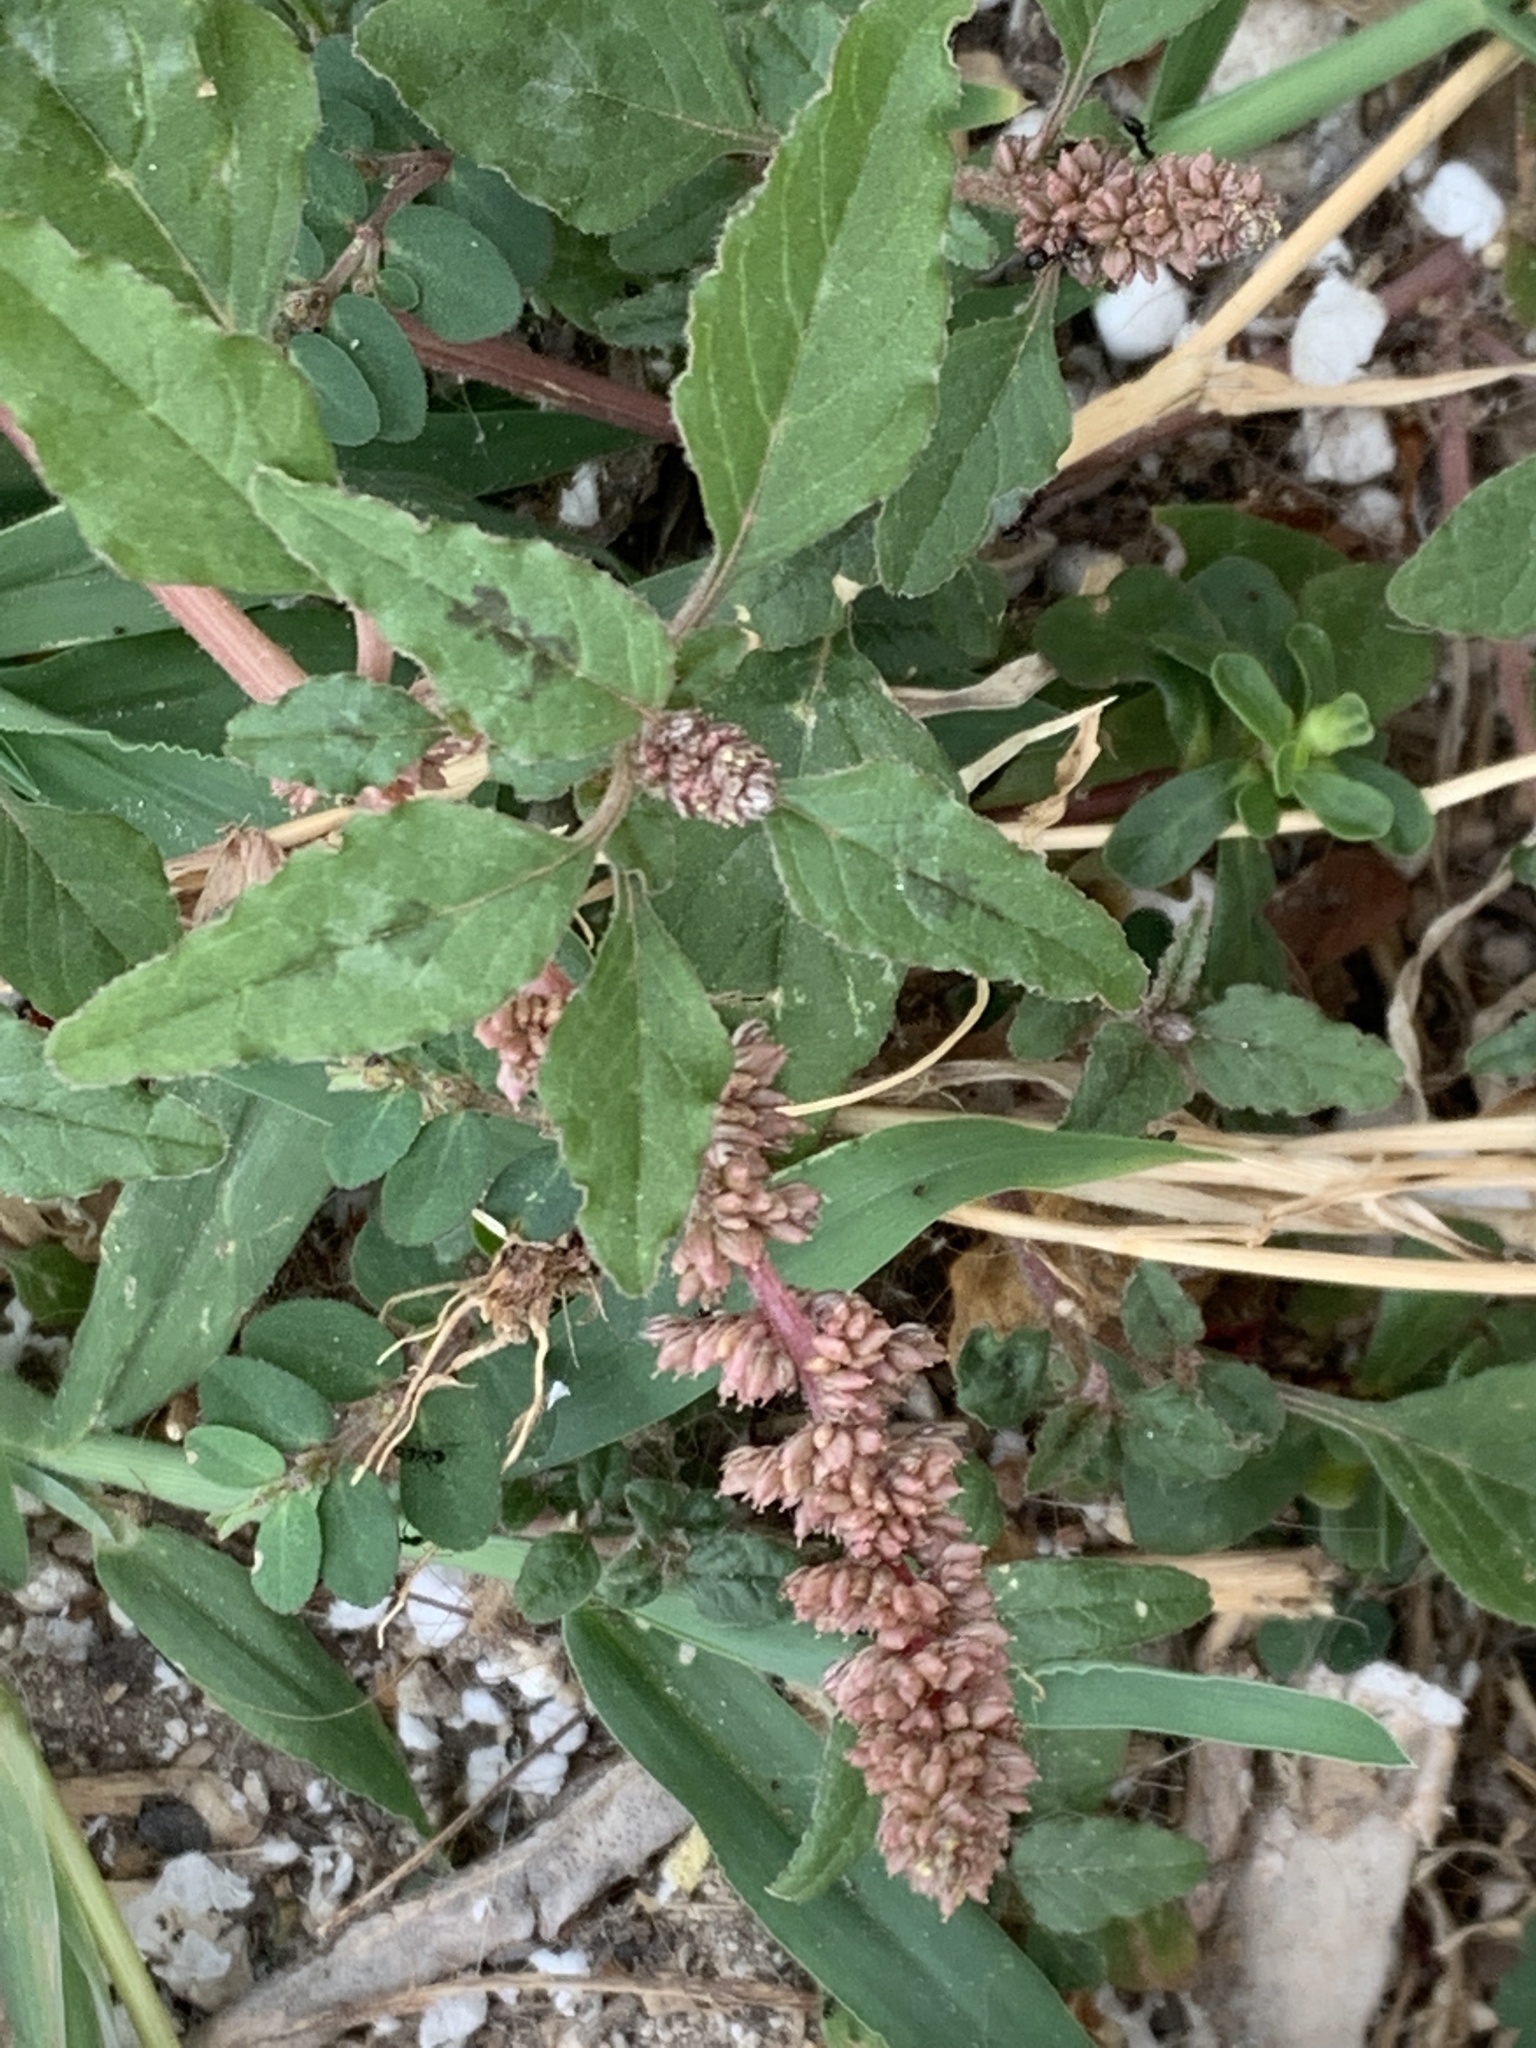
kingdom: Plantae
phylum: Tracheophyta
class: Magnoliopsida
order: Caryophyllales
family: Amaranthaceae
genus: Amaranthus
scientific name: Amaranthus deflexus
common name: Perennial pigweed
